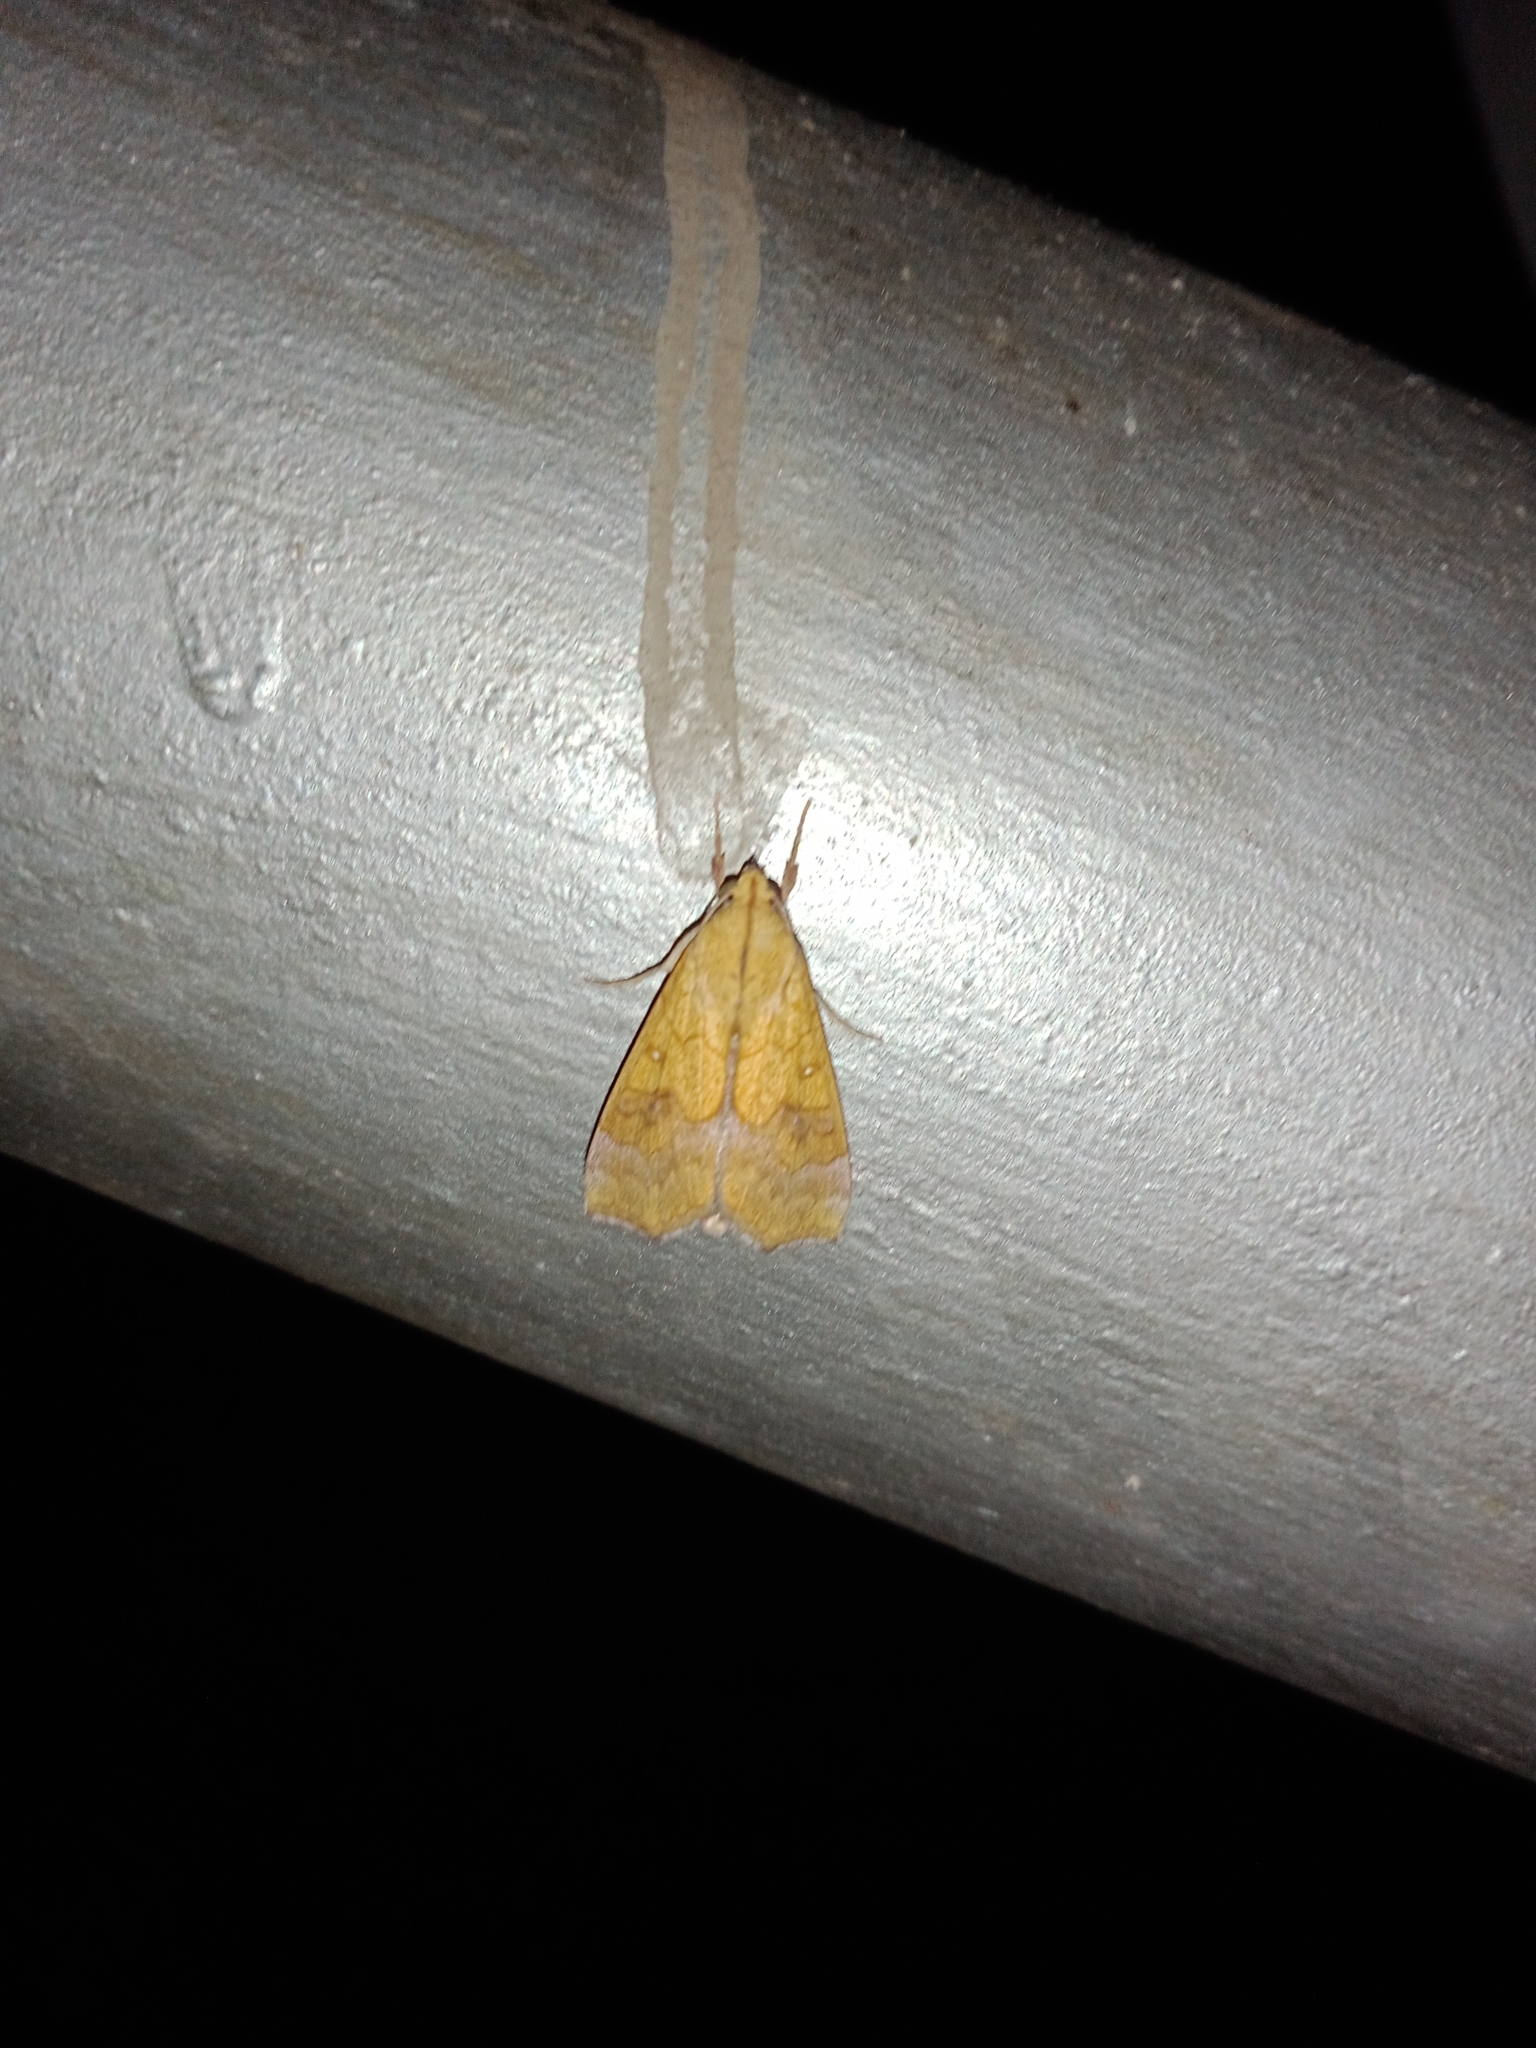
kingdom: Animalia
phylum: Arthropoda
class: Insecta
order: Lepidoptera
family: Erebidae
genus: Anomis
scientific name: Anomis flava
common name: Moth
